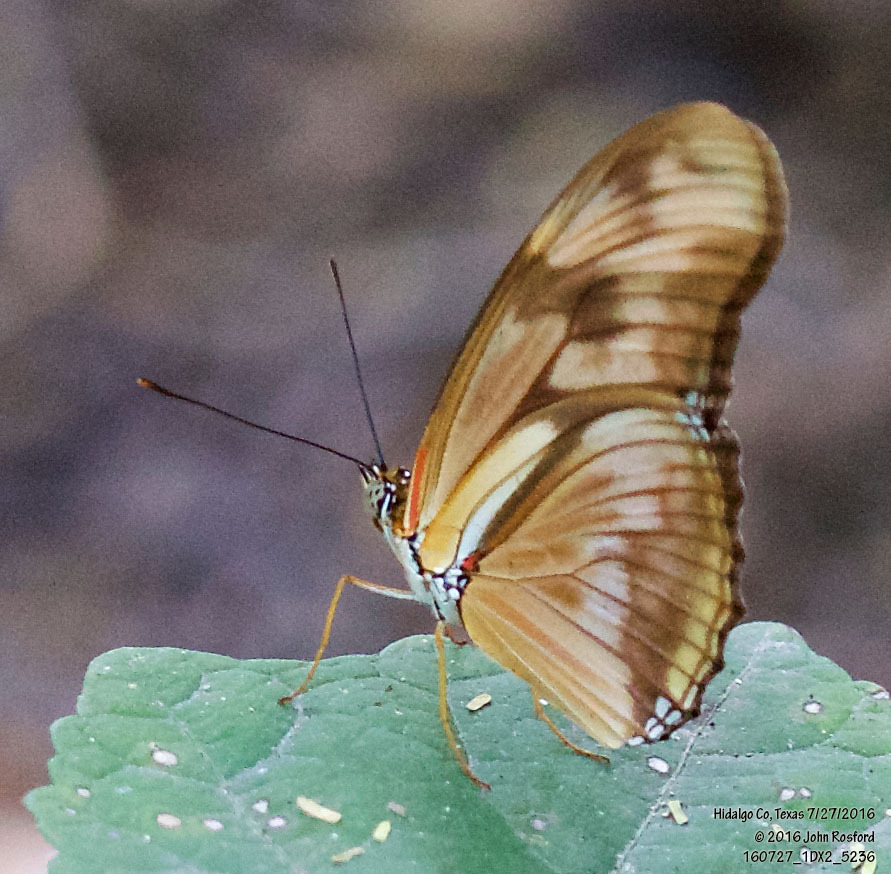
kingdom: Animalia
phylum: Arthropoda
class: Insecta
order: Lepidoptera
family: Nymphalidae
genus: Dryas
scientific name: Dryas iulia
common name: Flambeau
